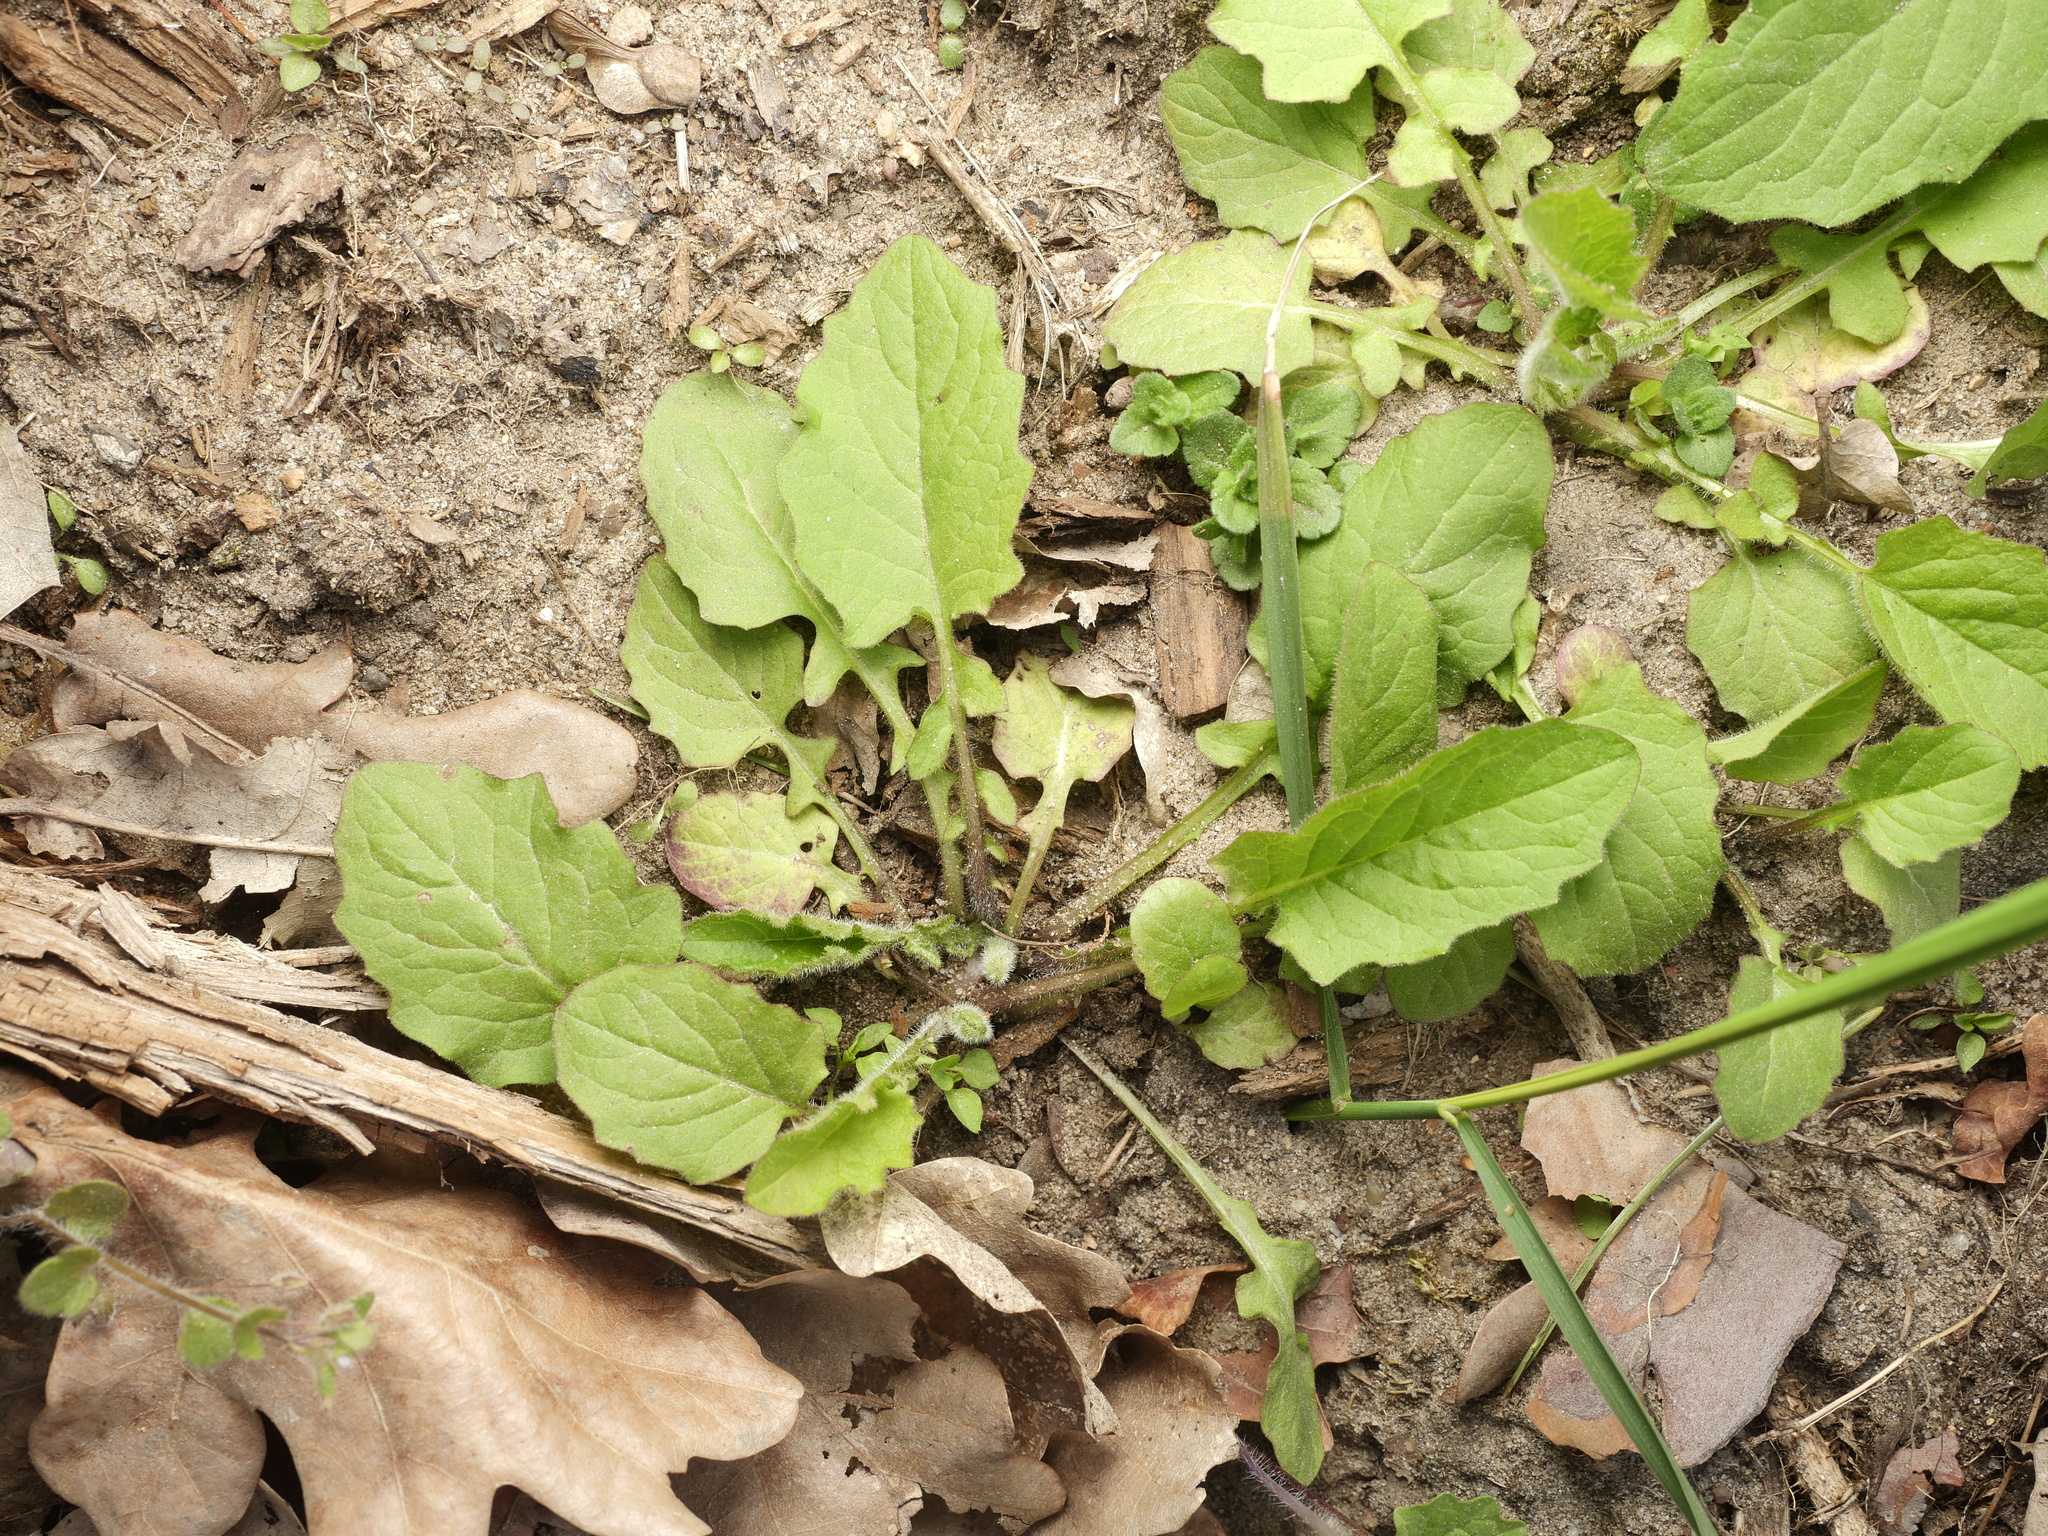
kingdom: Plantae
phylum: Tracheophyta
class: Magnoliopsida
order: Asterales
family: Asteraceae
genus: Lapsana
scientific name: Lapsana communis
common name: Nipplewort
